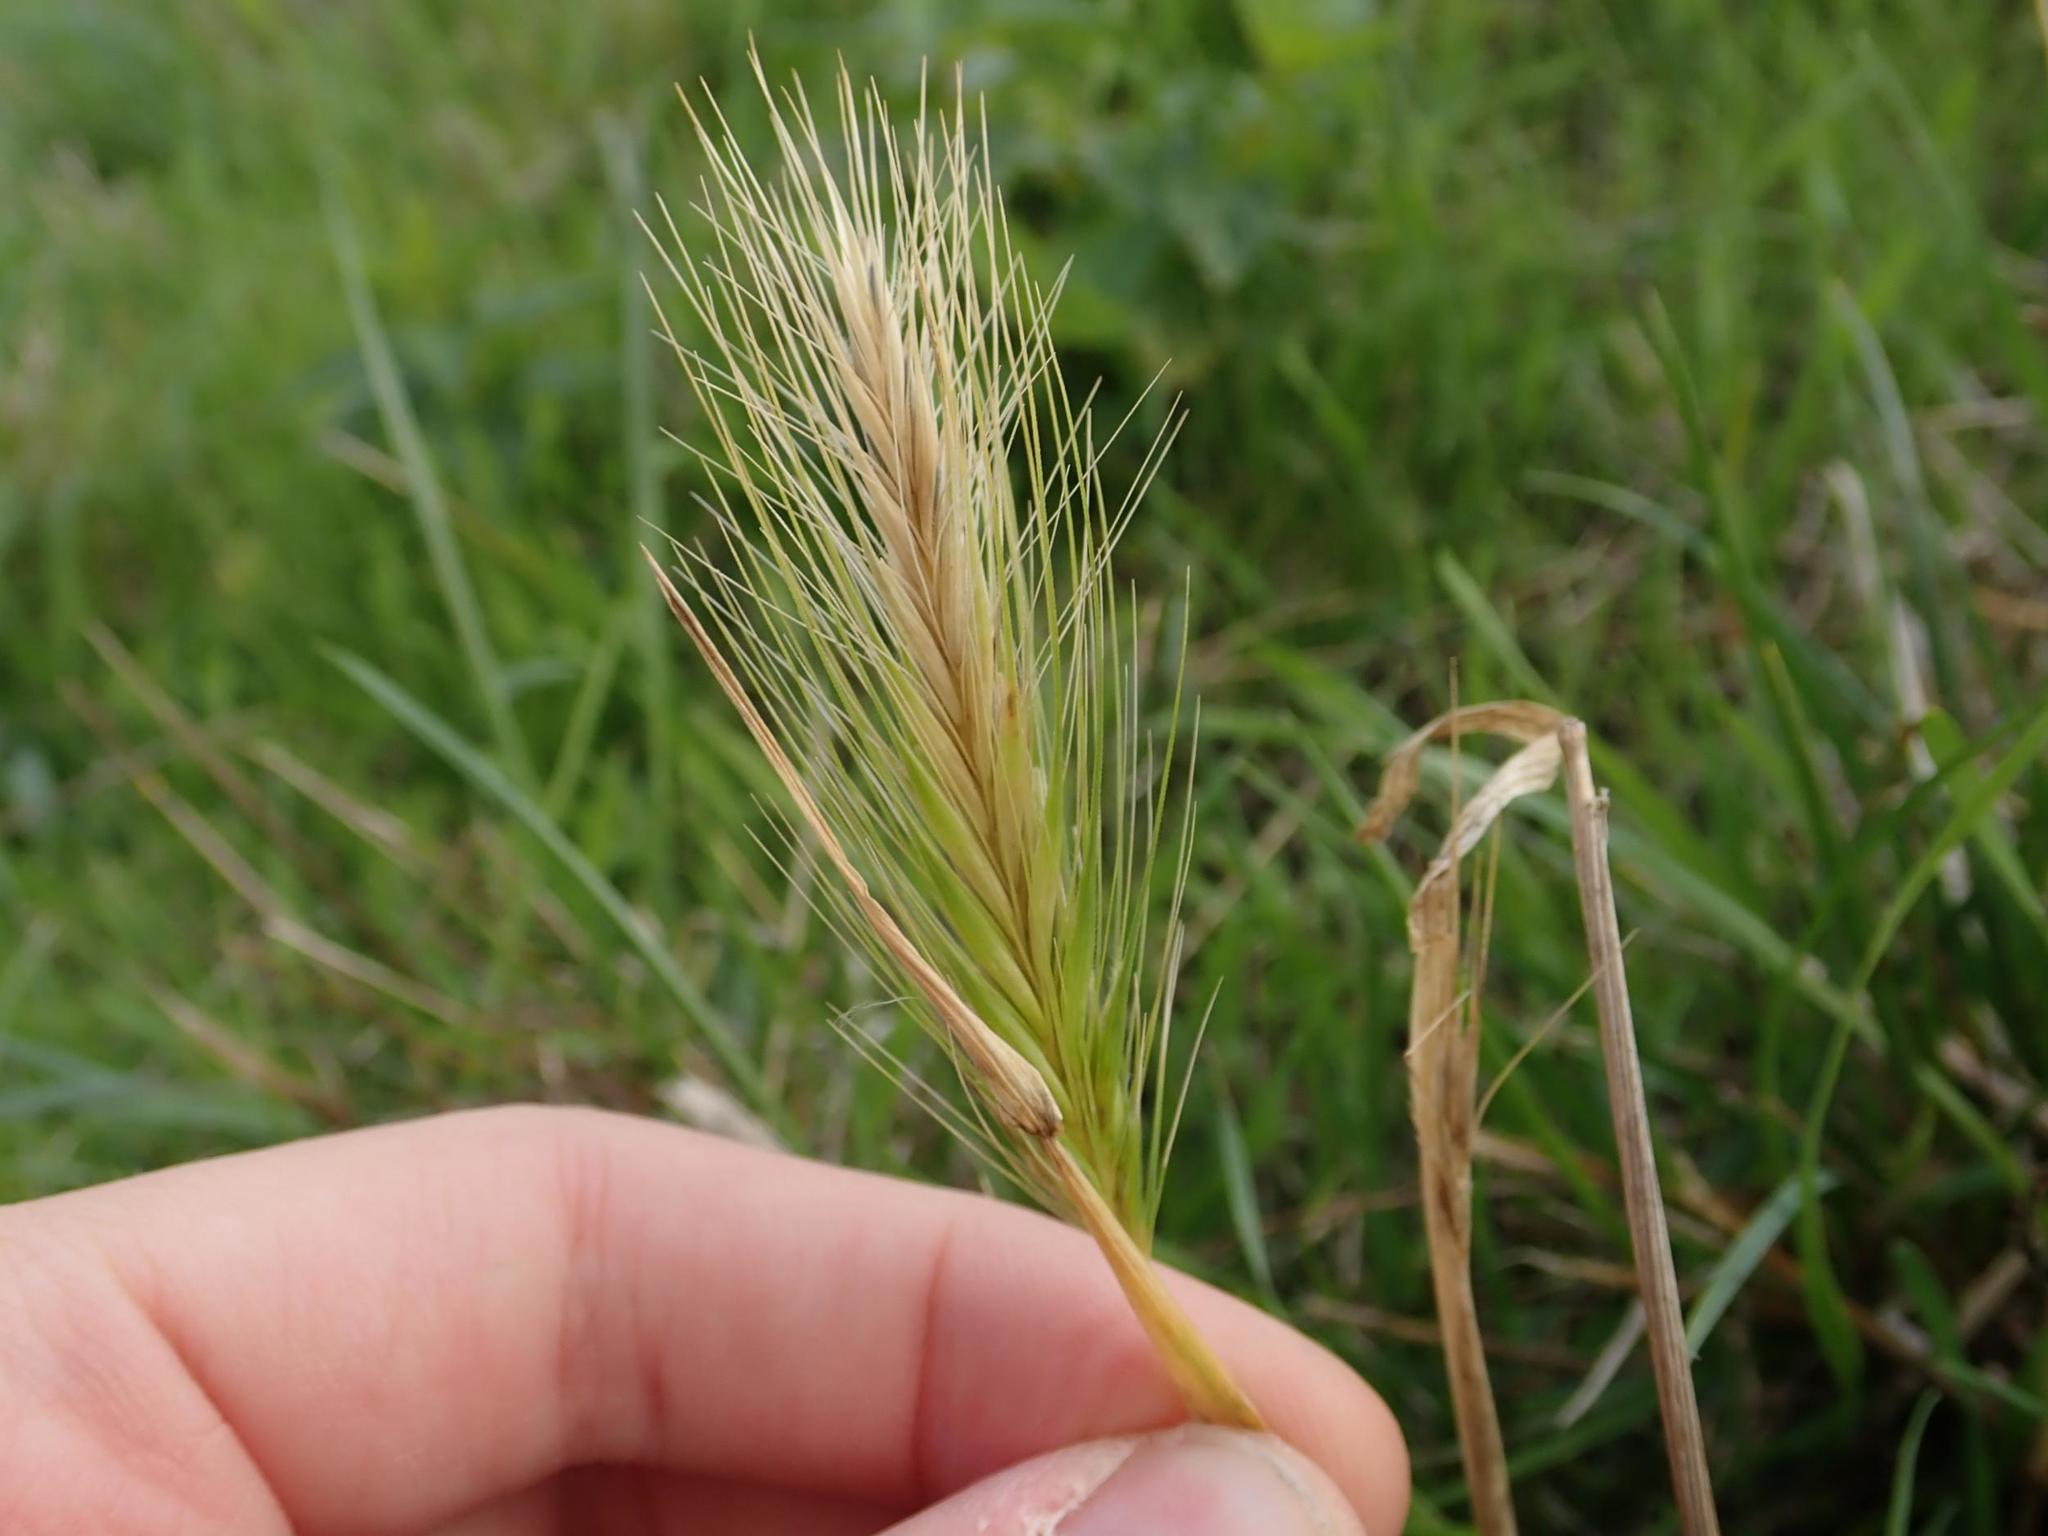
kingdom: Plantae
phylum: Tracheophyta
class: Liliopsida
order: Poales
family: Poaceae
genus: Hordeum
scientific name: Hordeum murinum
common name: Wall barley
